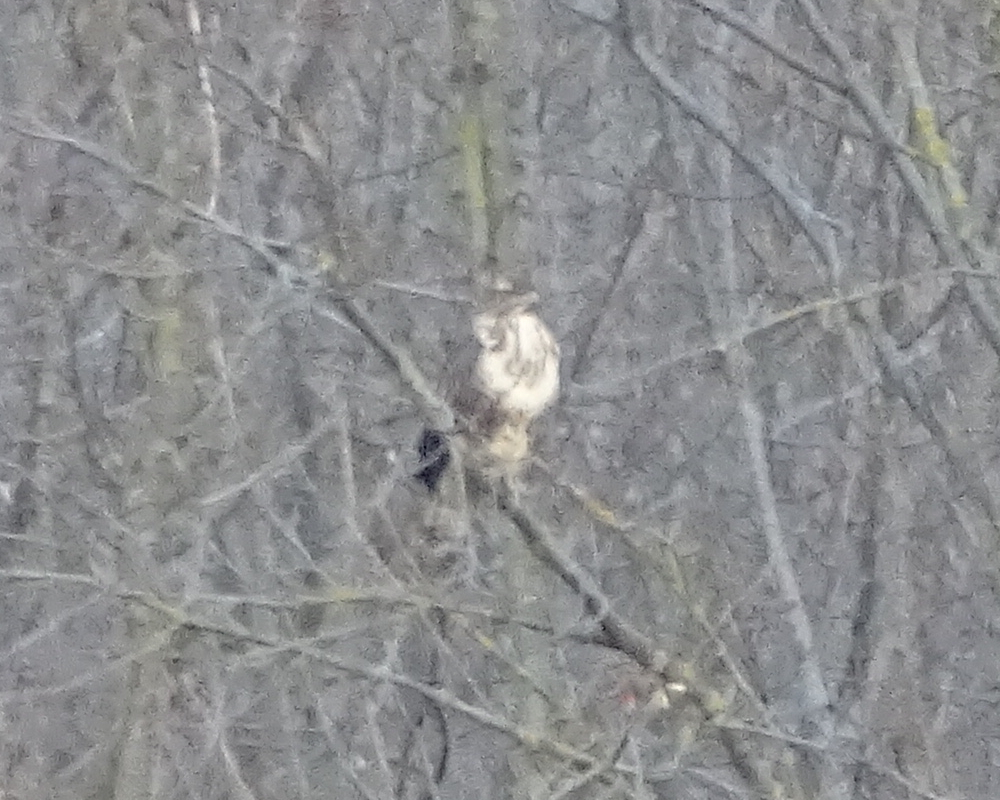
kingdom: Animalia
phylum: Chordata
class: Aves
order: Accipitriformes
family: Accipitridae
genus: Buteo
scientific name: Buteo buteo
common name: Common buzzard
